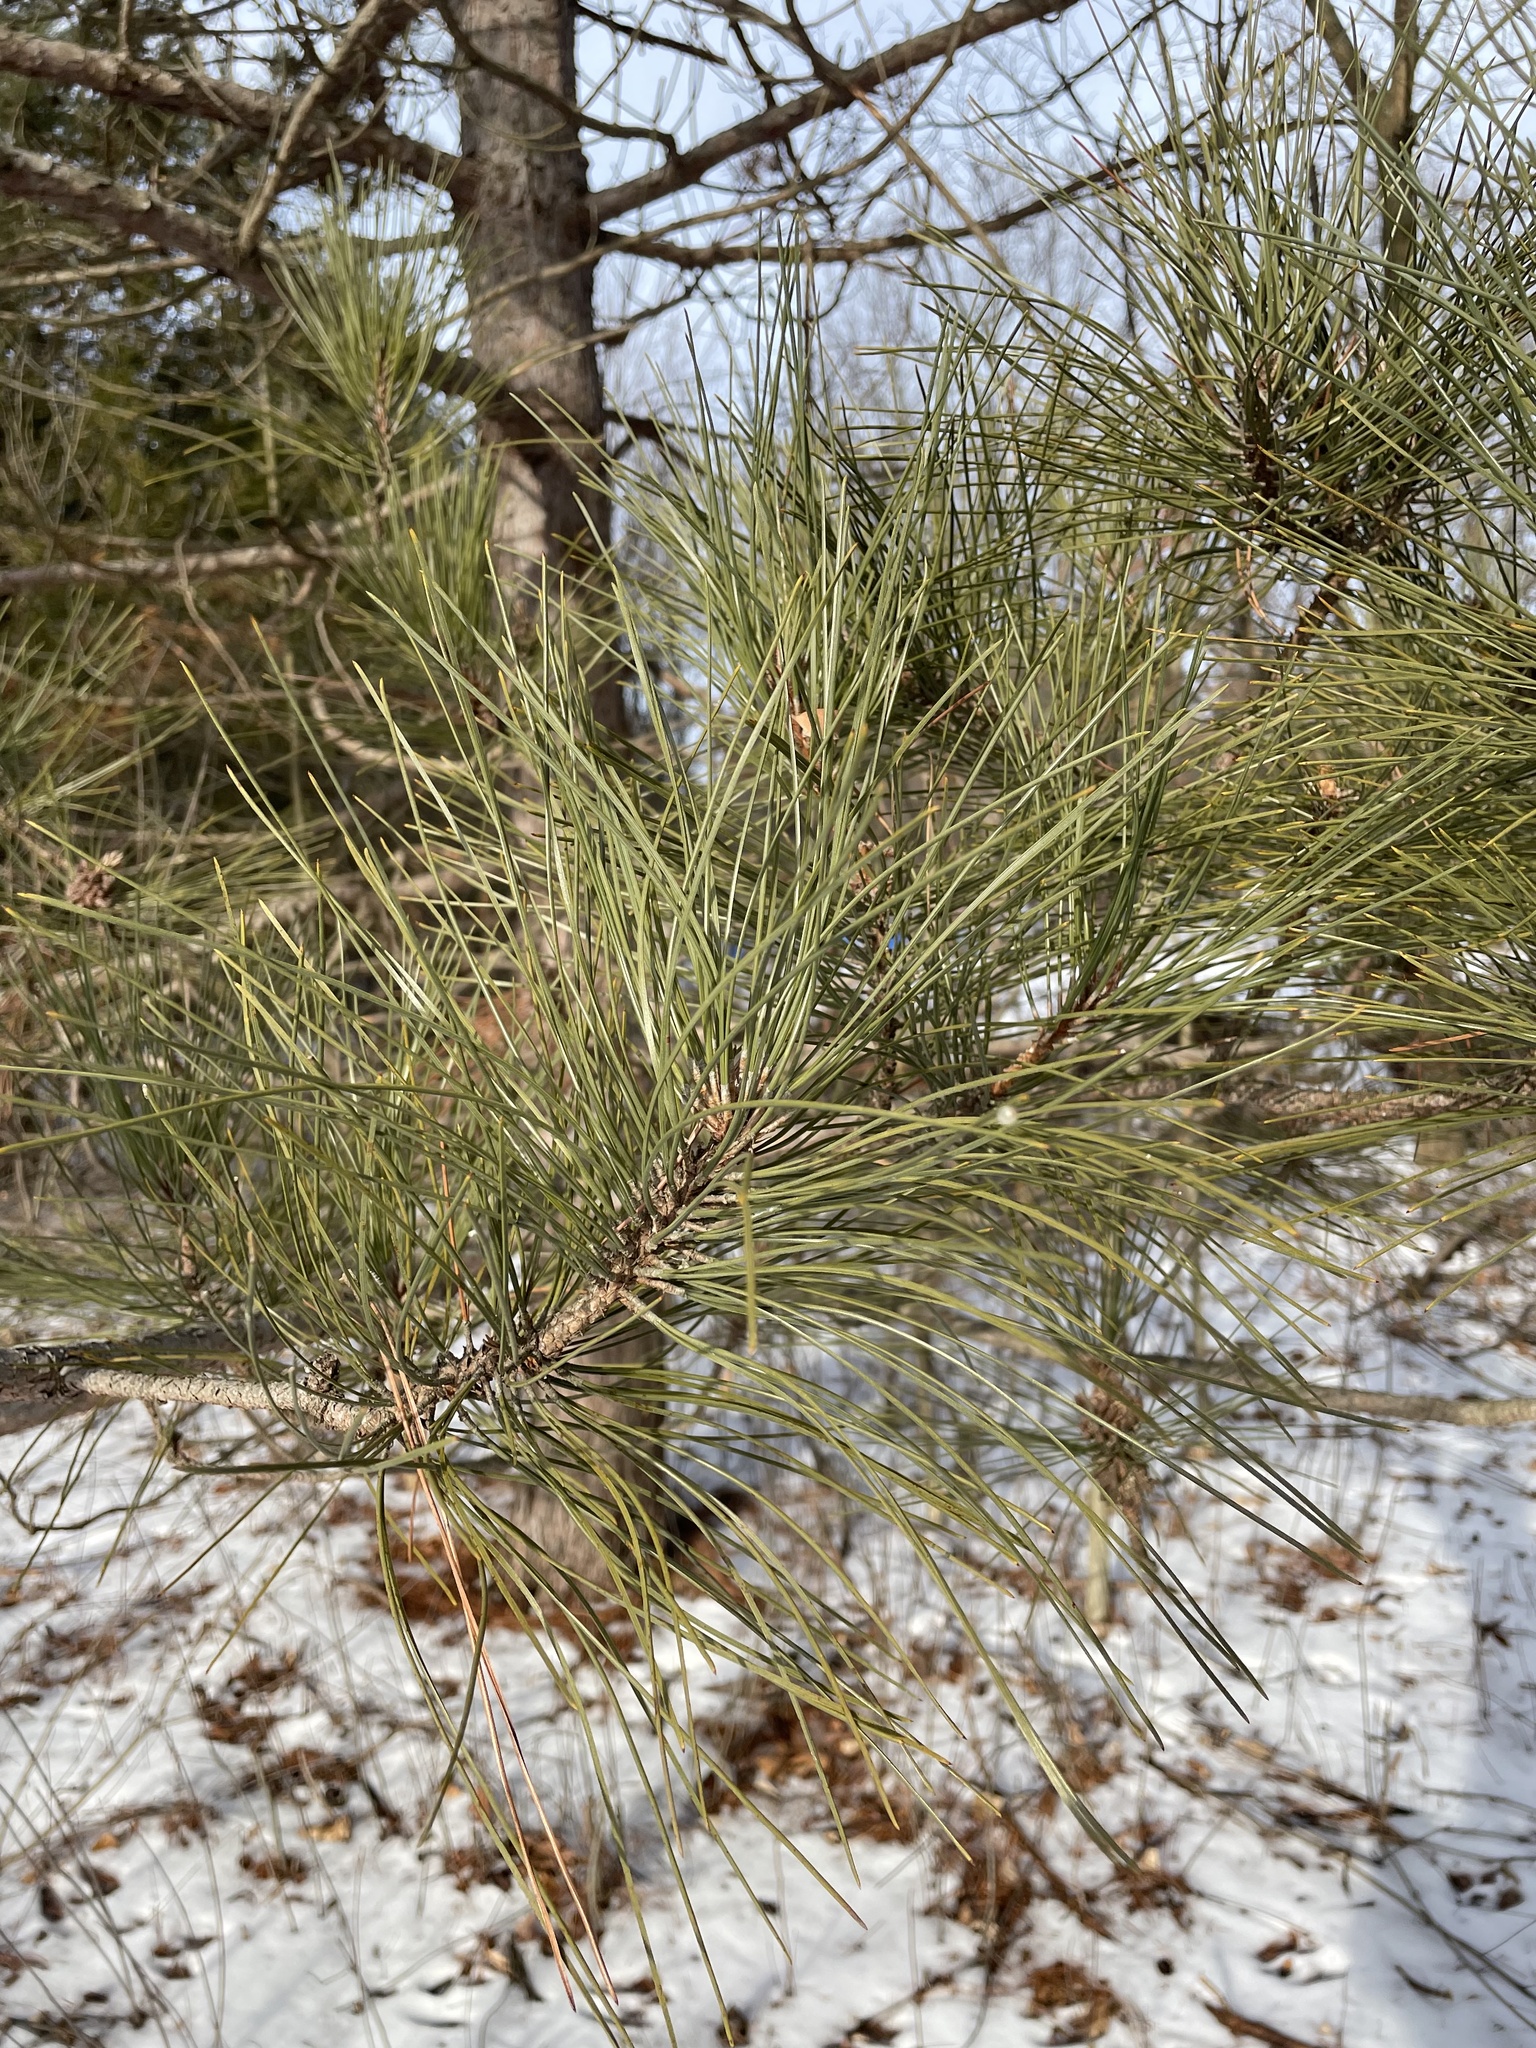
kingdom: Plantae
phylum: Tracheophyta
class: Pinopsida
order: Pinales
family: Pinaceae
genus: Pinus
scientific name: Pinus resinosa
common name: Norway pine
